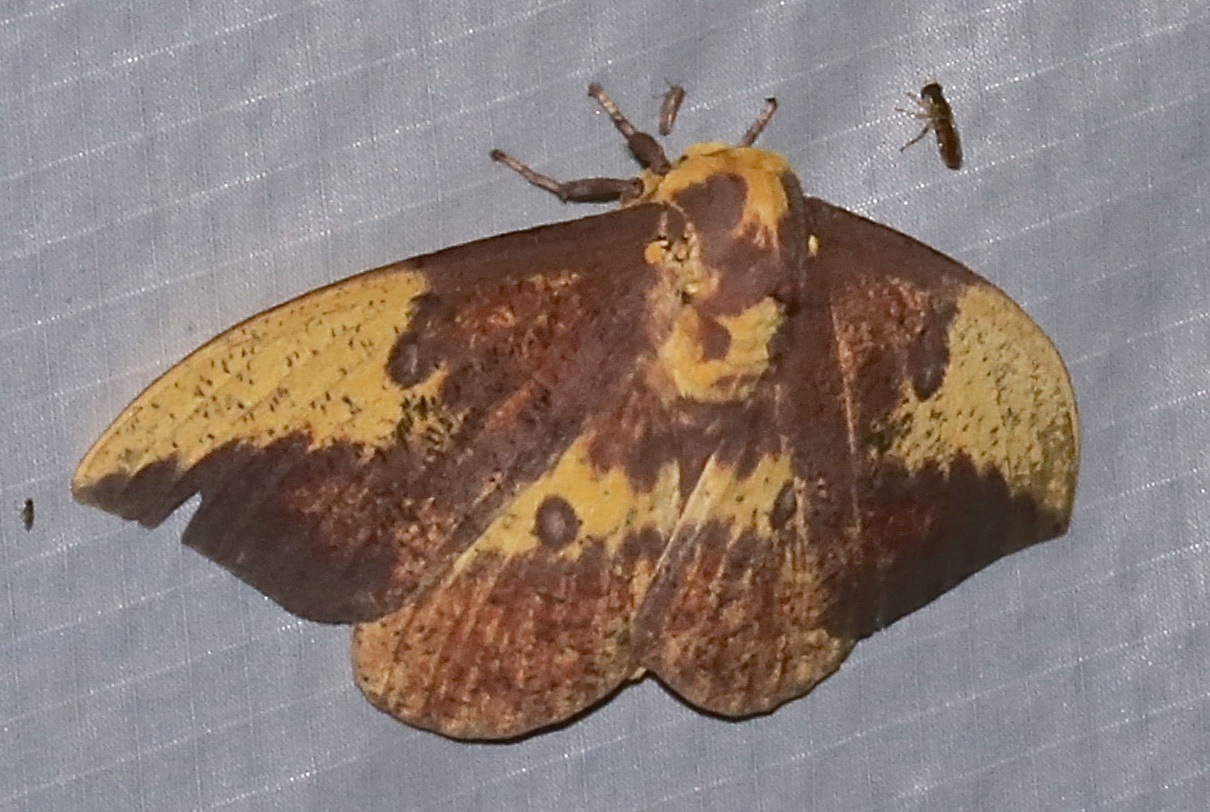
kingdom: Animalia
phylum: Arthropoda
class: Insecta
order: Lepidoptera
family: Saturniidae
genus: Eacles
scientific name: Eacles imperialis
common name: Imperial moth
